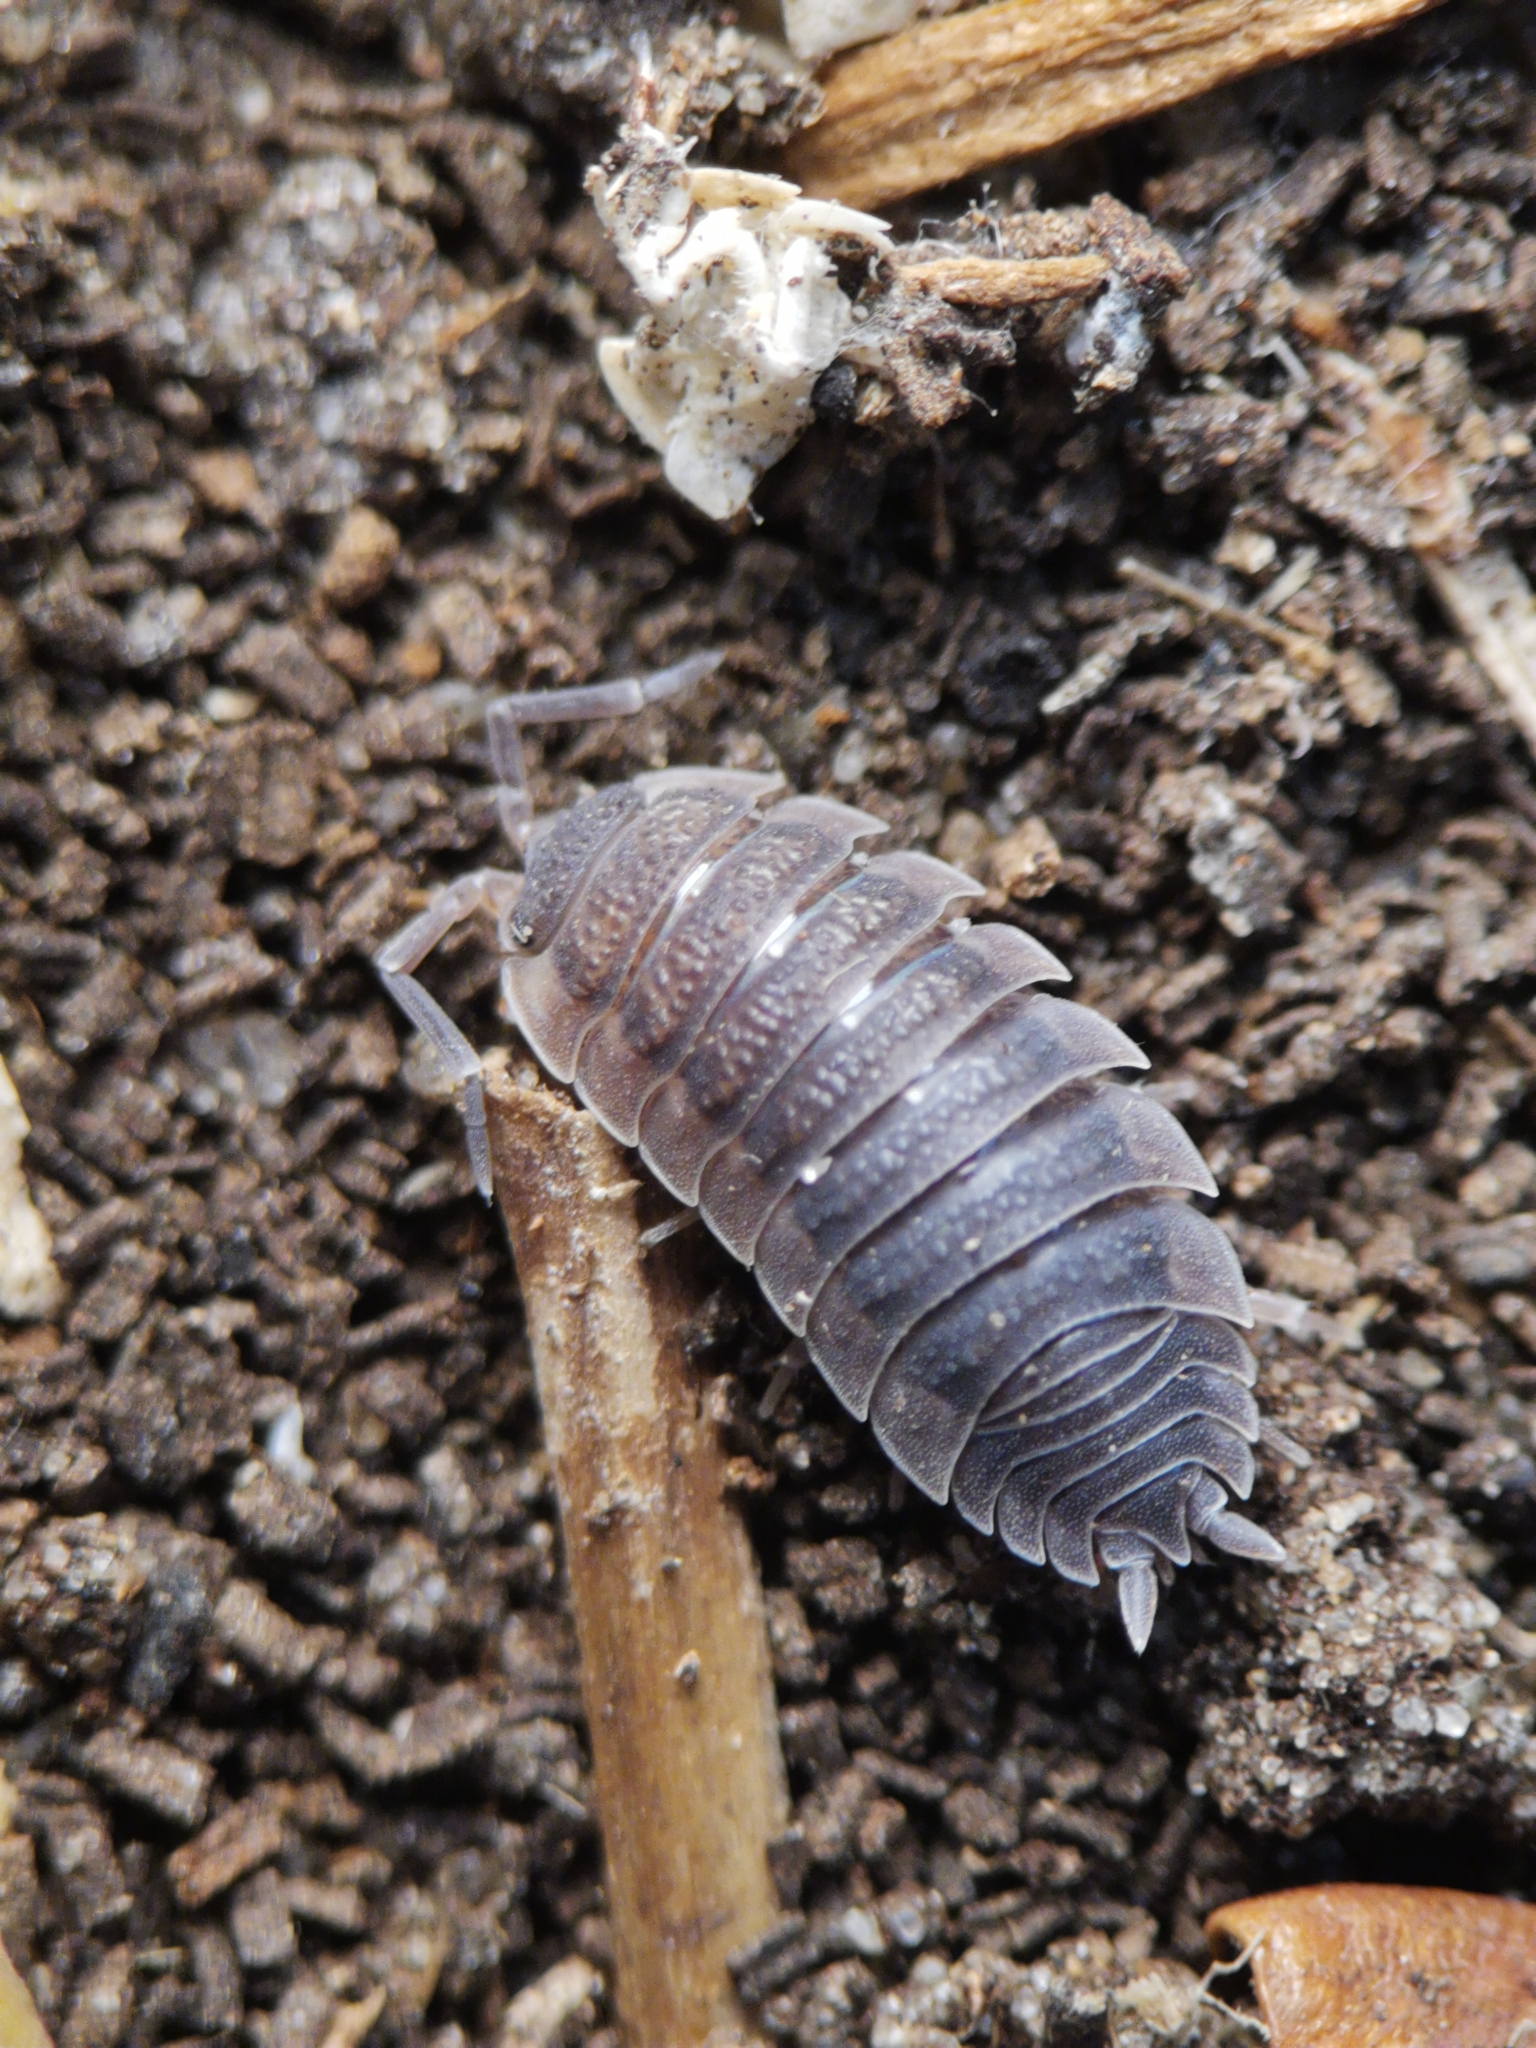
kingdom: Animalia
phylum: Arthropoda
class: Malacostraca
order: Isopoda
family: Porcellionidae
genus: Porcellio
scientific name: Porcellio scaber
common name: Common rough woodlouse
